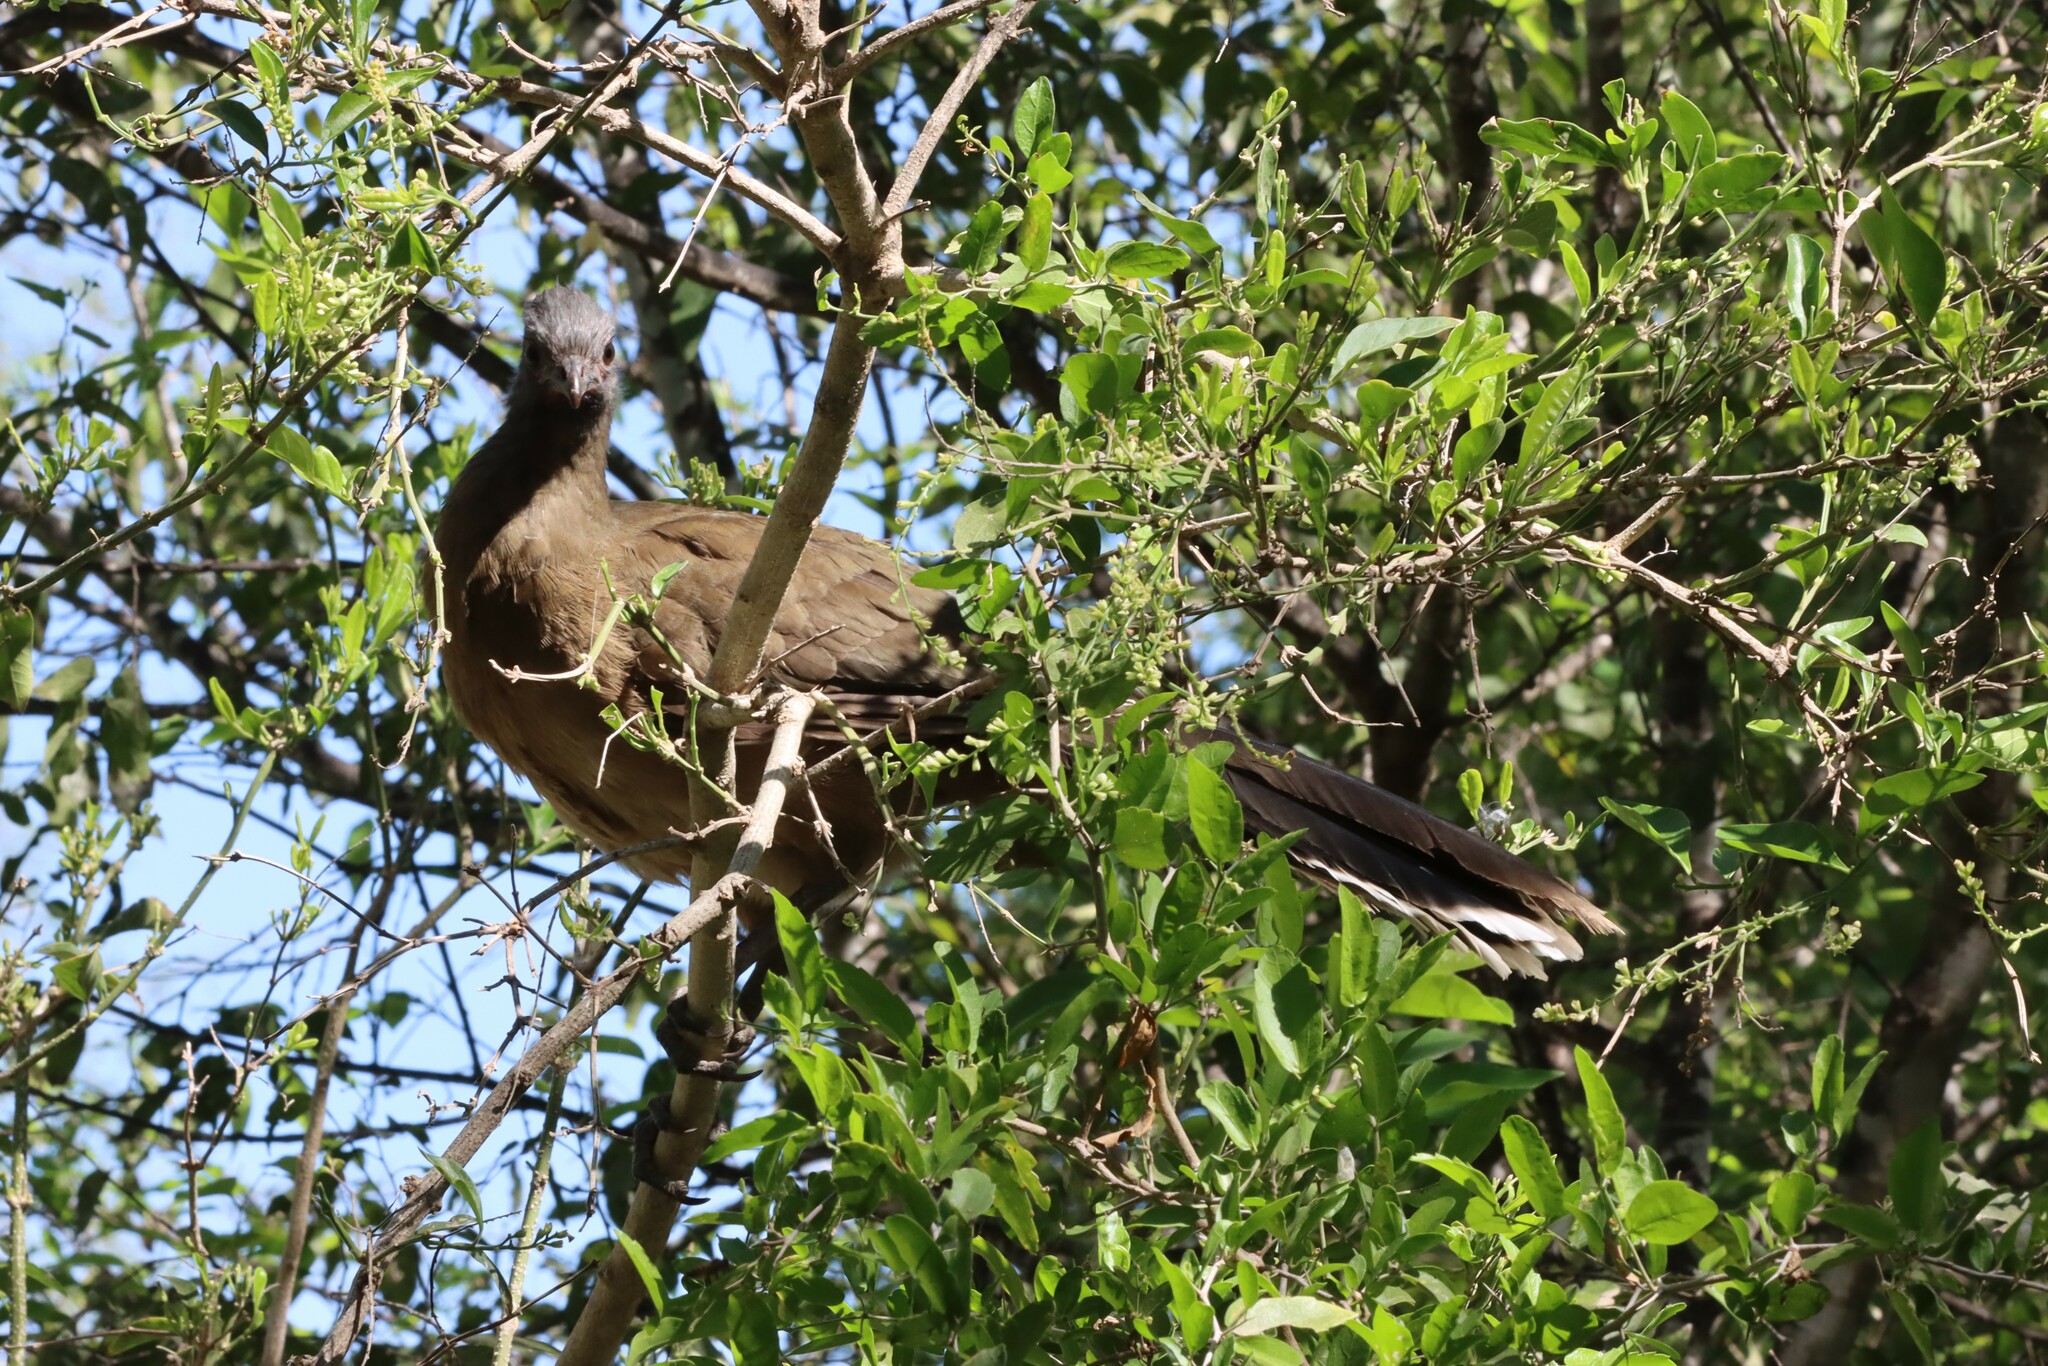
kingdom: Animalia
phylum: Chordata
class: Aves
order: Galliformes
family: Cracidae
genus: Ortalis
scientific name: Ortalis vetula
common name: Plain chachalaca
